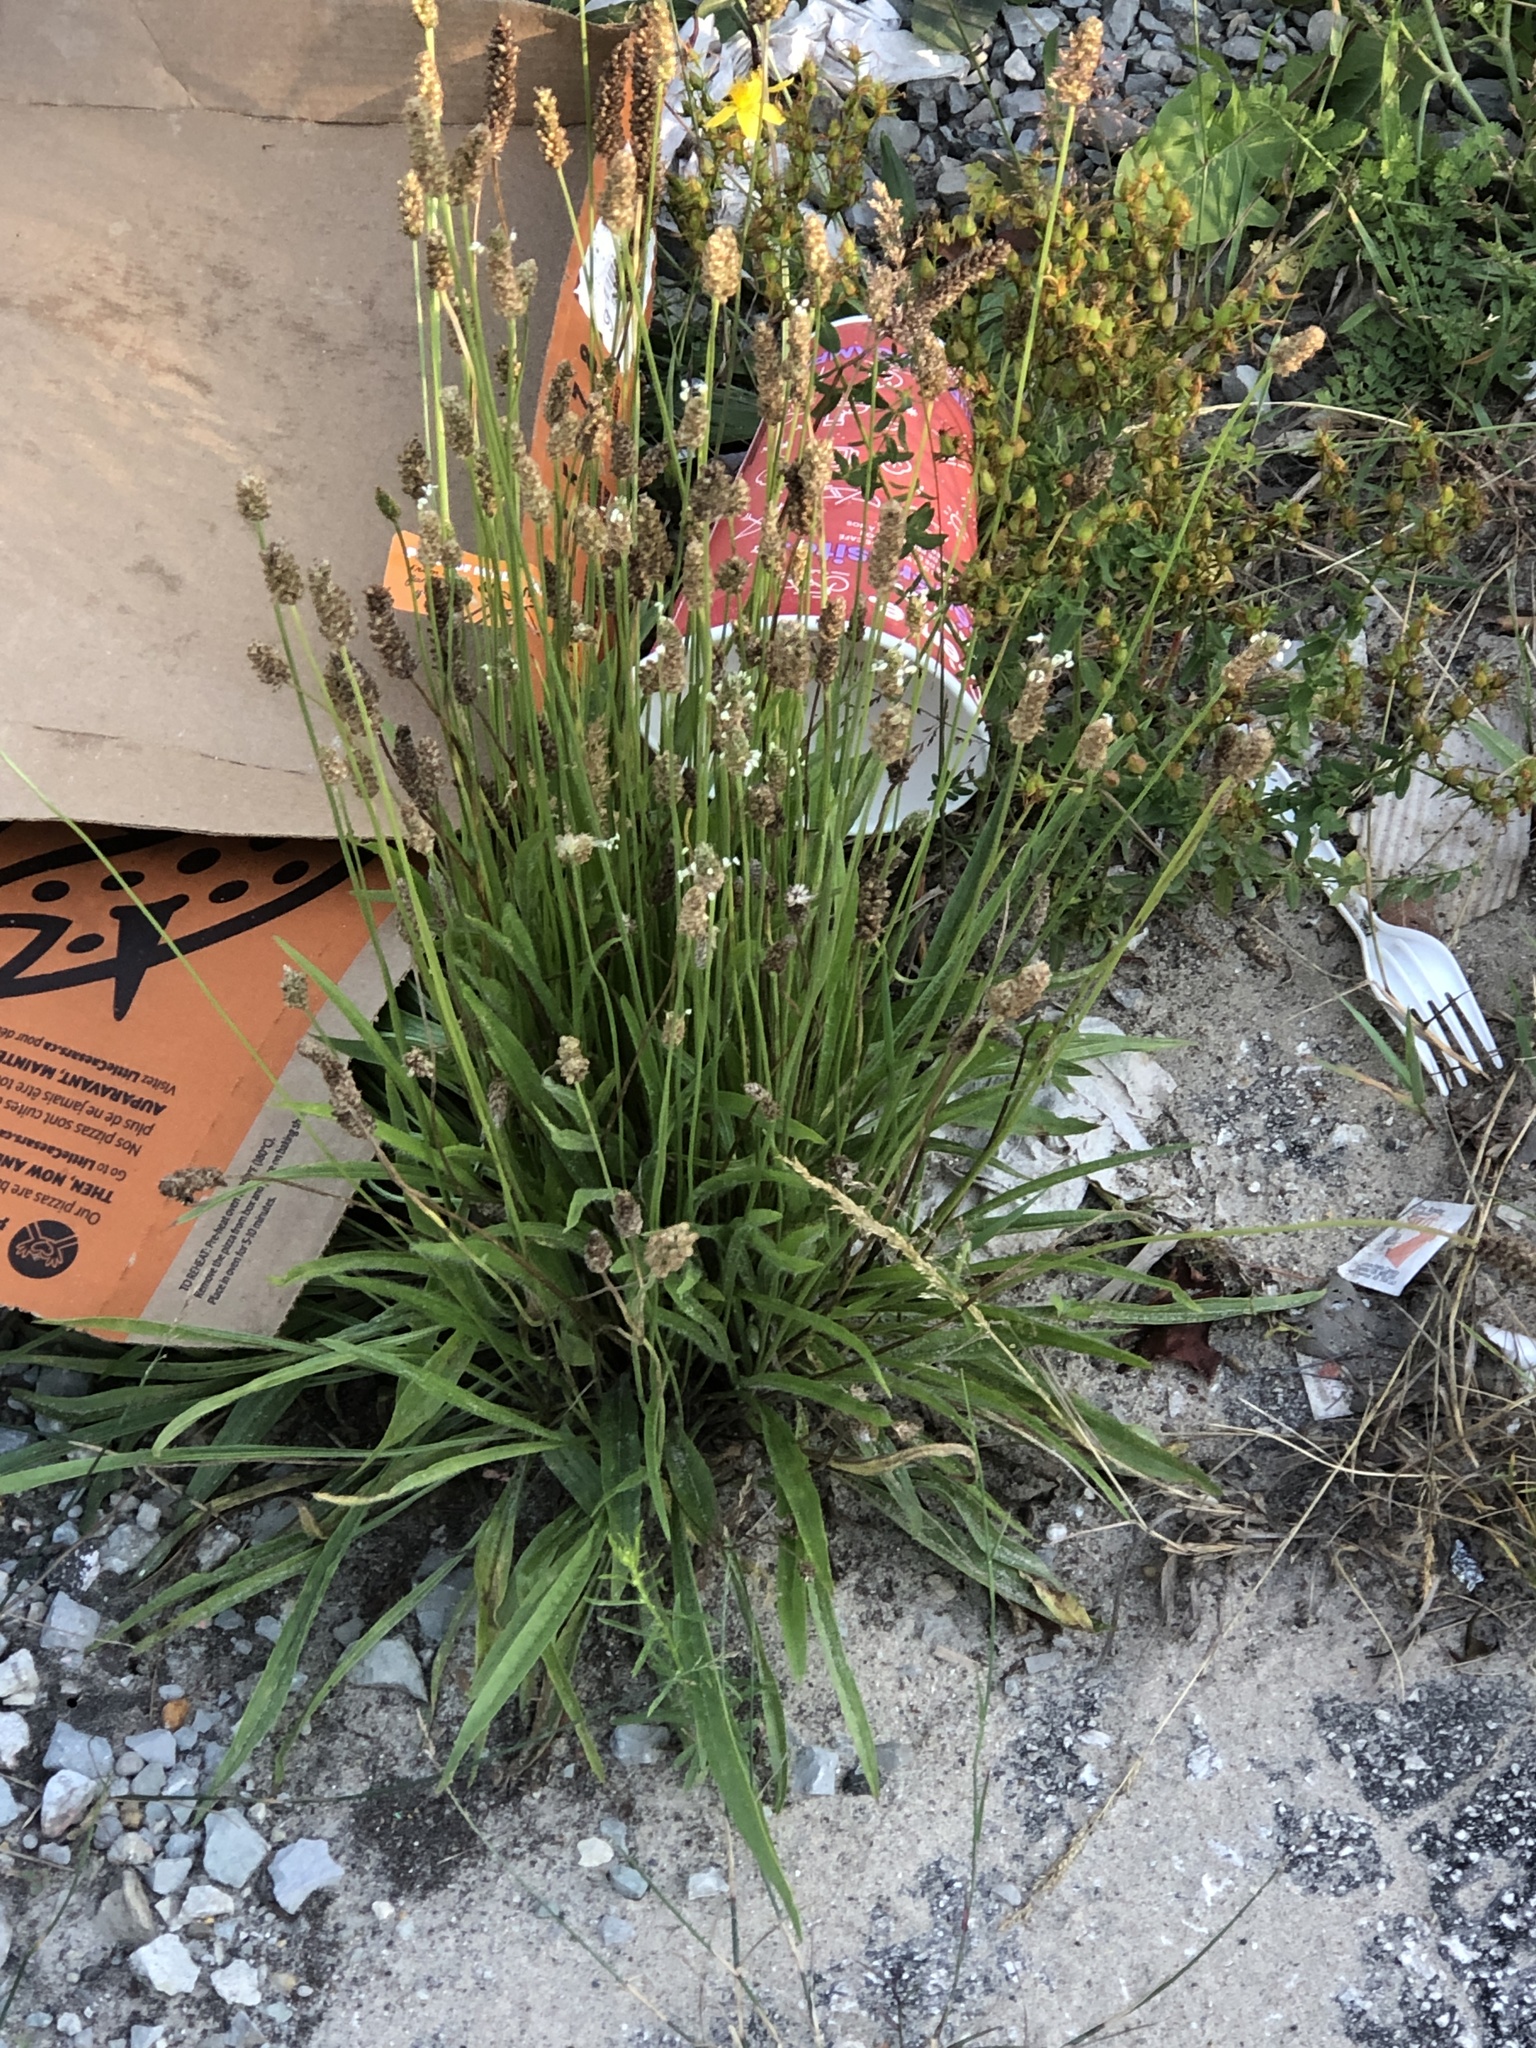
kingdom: Plantae
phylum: Tracheophyta
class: Magnoliopsida
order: Lamiales
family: Plantaginaceae
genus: Plantago
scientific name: Plantago lanceolata
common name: Ribwort plantain
